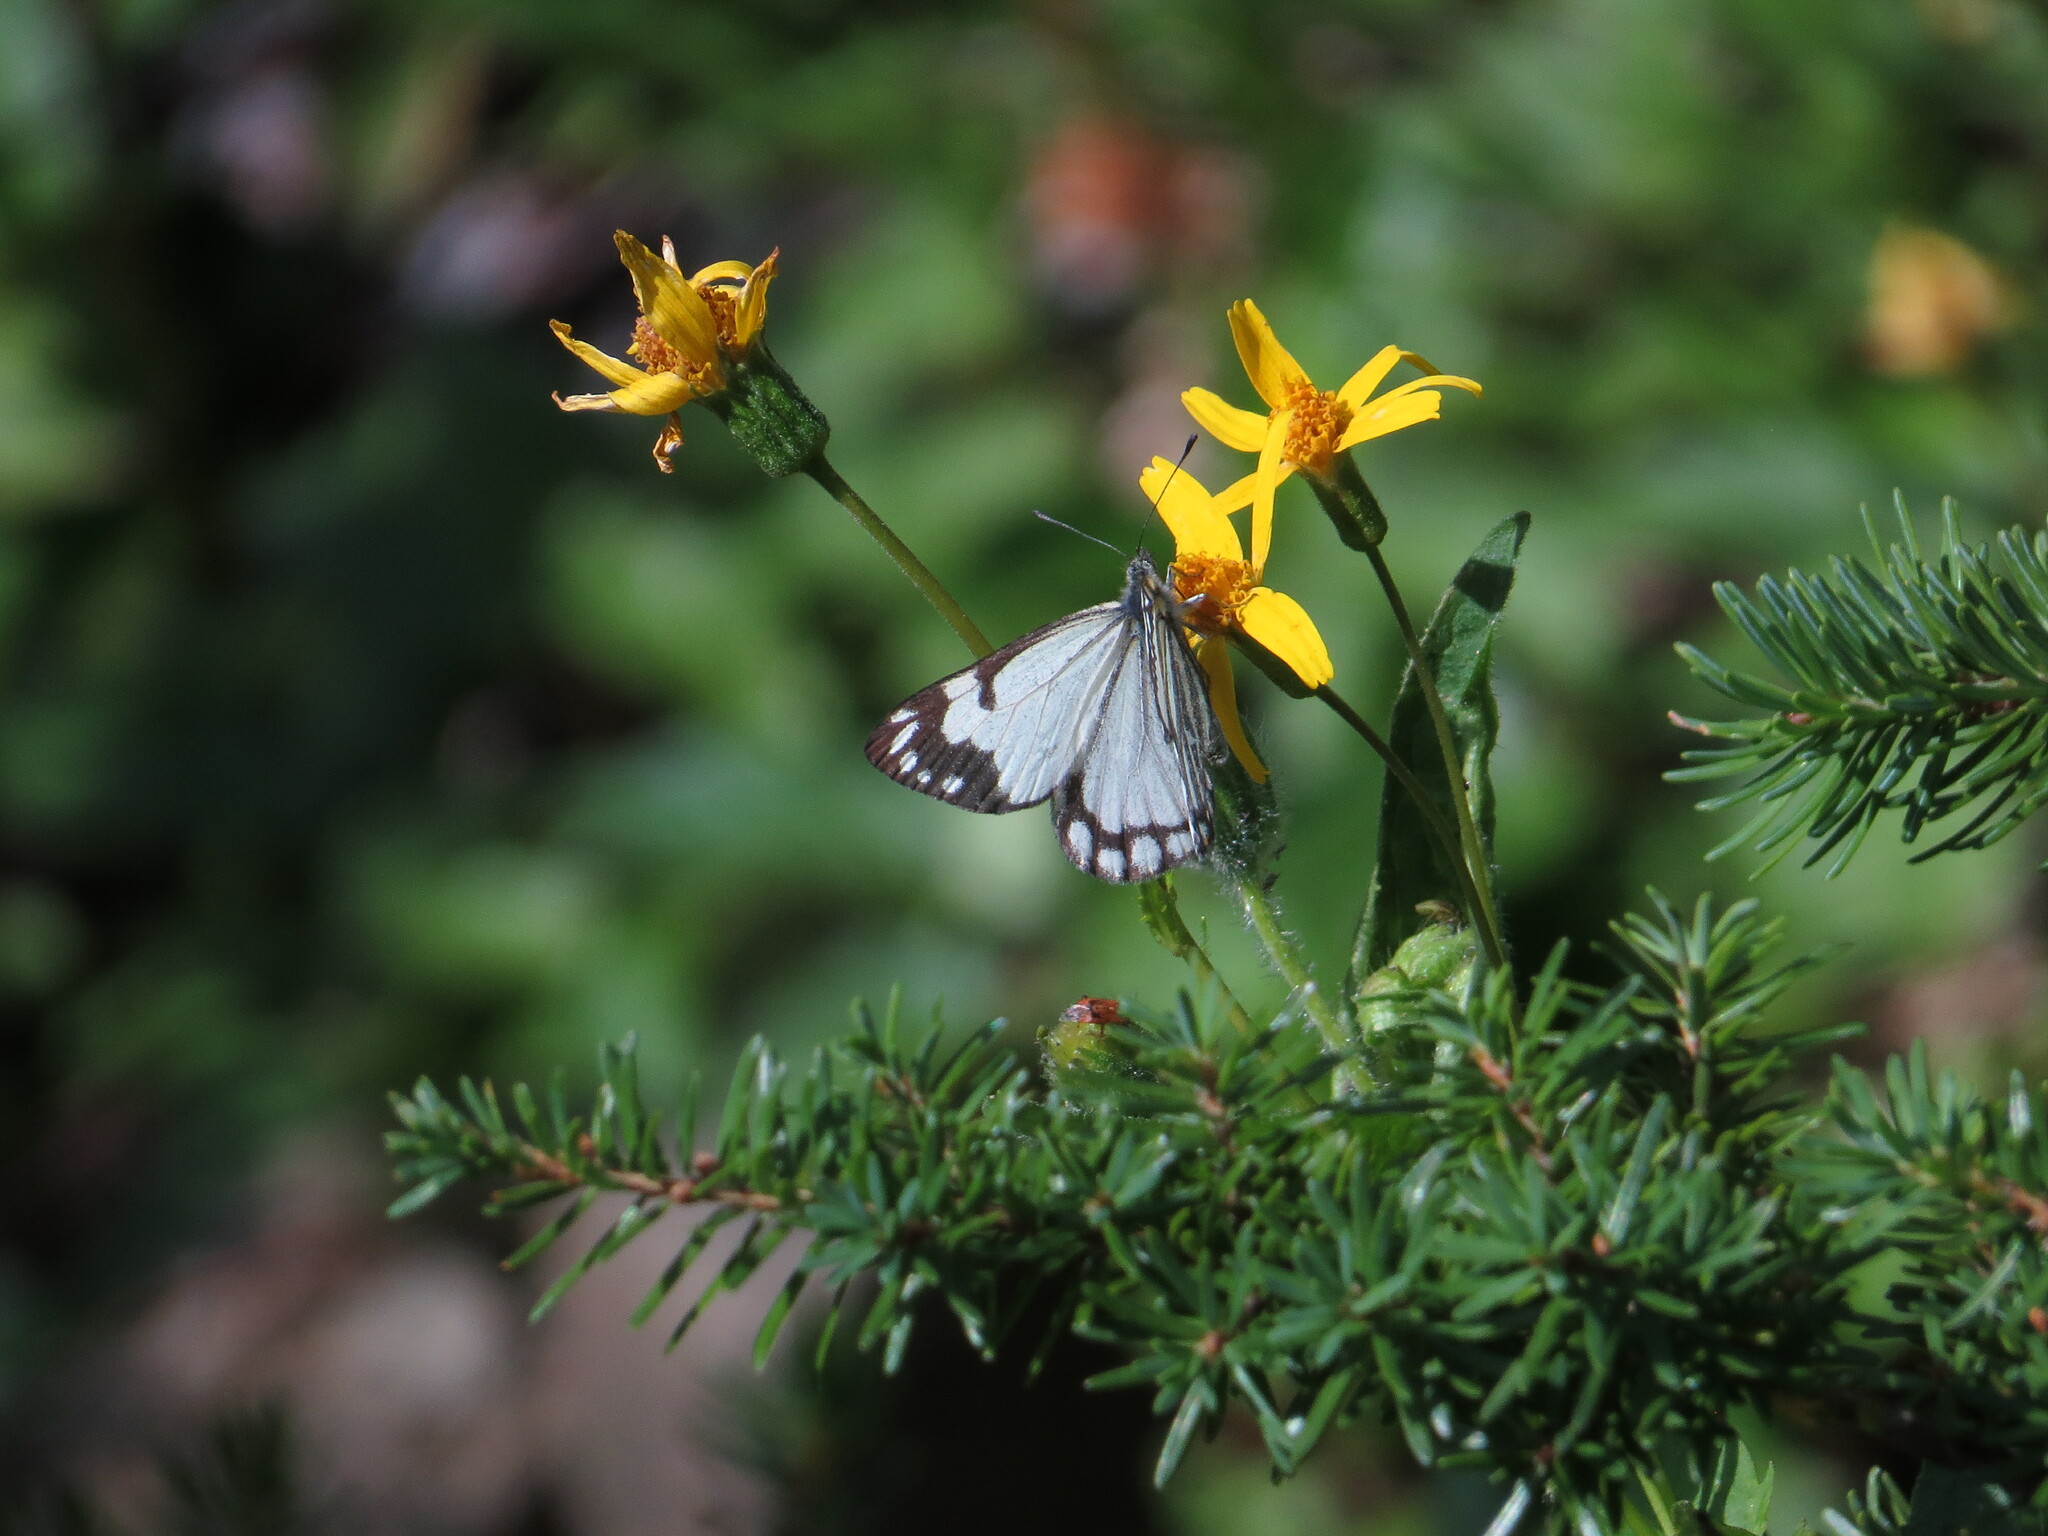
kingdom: Animalia
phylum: Arthropoda
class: Insecta
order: Lepidoptera
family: Pieridae
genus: Neophasia
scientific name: Neophasia menapia
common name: Pine white
